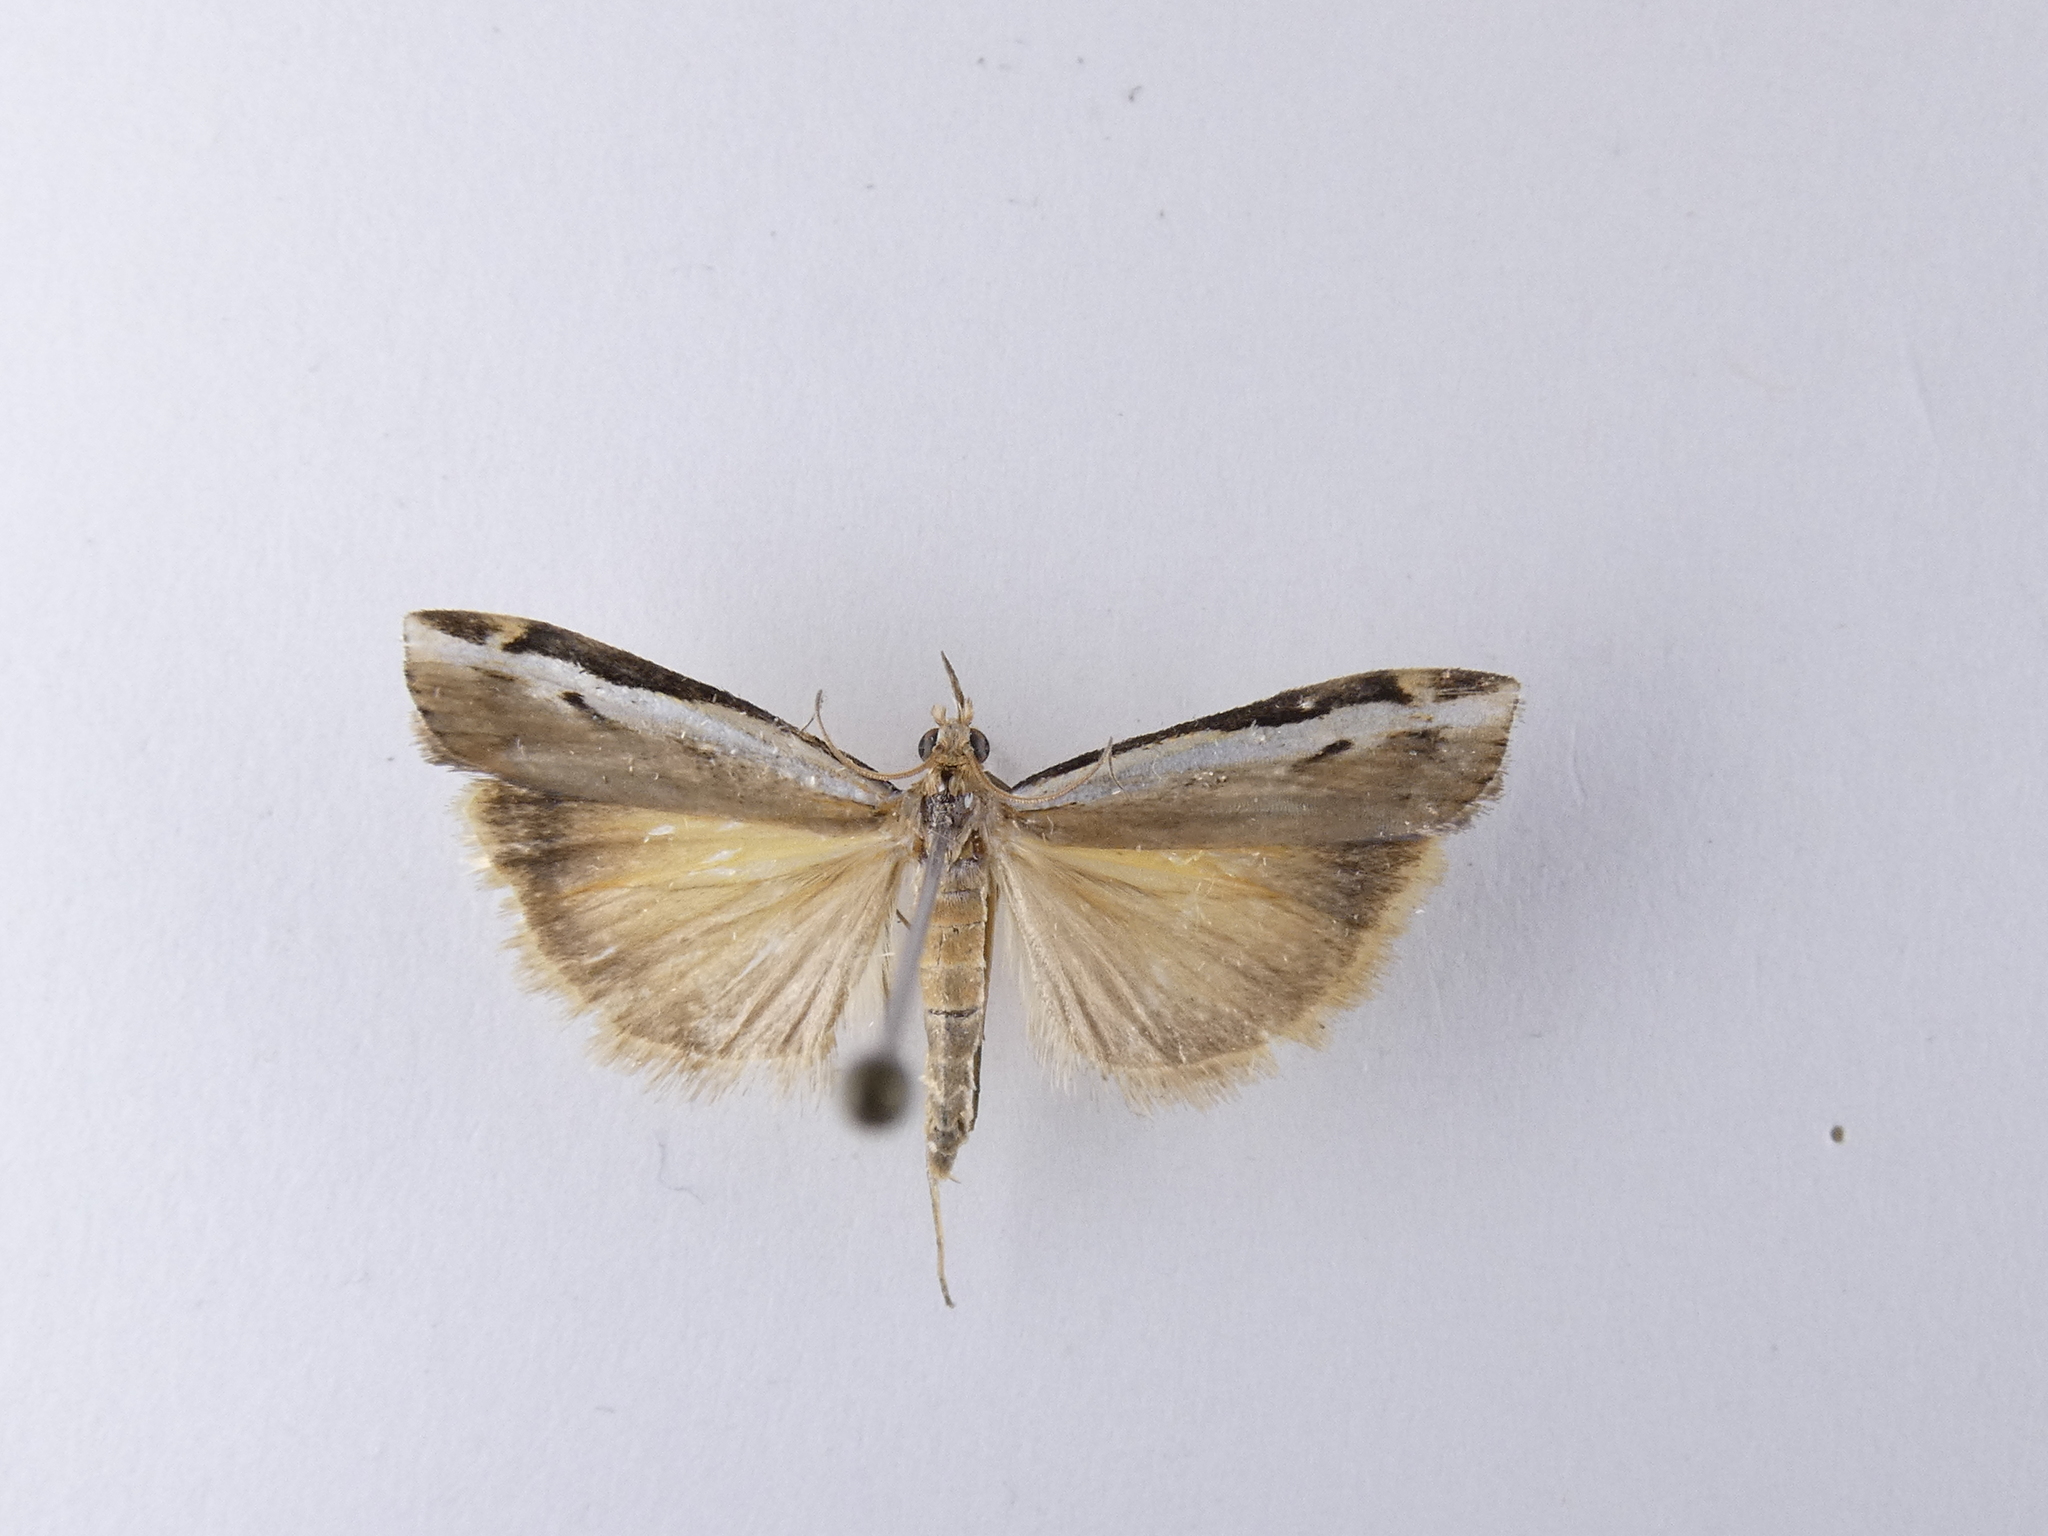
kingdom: Animalia
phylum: Arthropoda
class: Insecta
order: Lepidoptera
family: Crambidae
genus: Orocrambus
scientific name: Orocrambus flexuosellus
